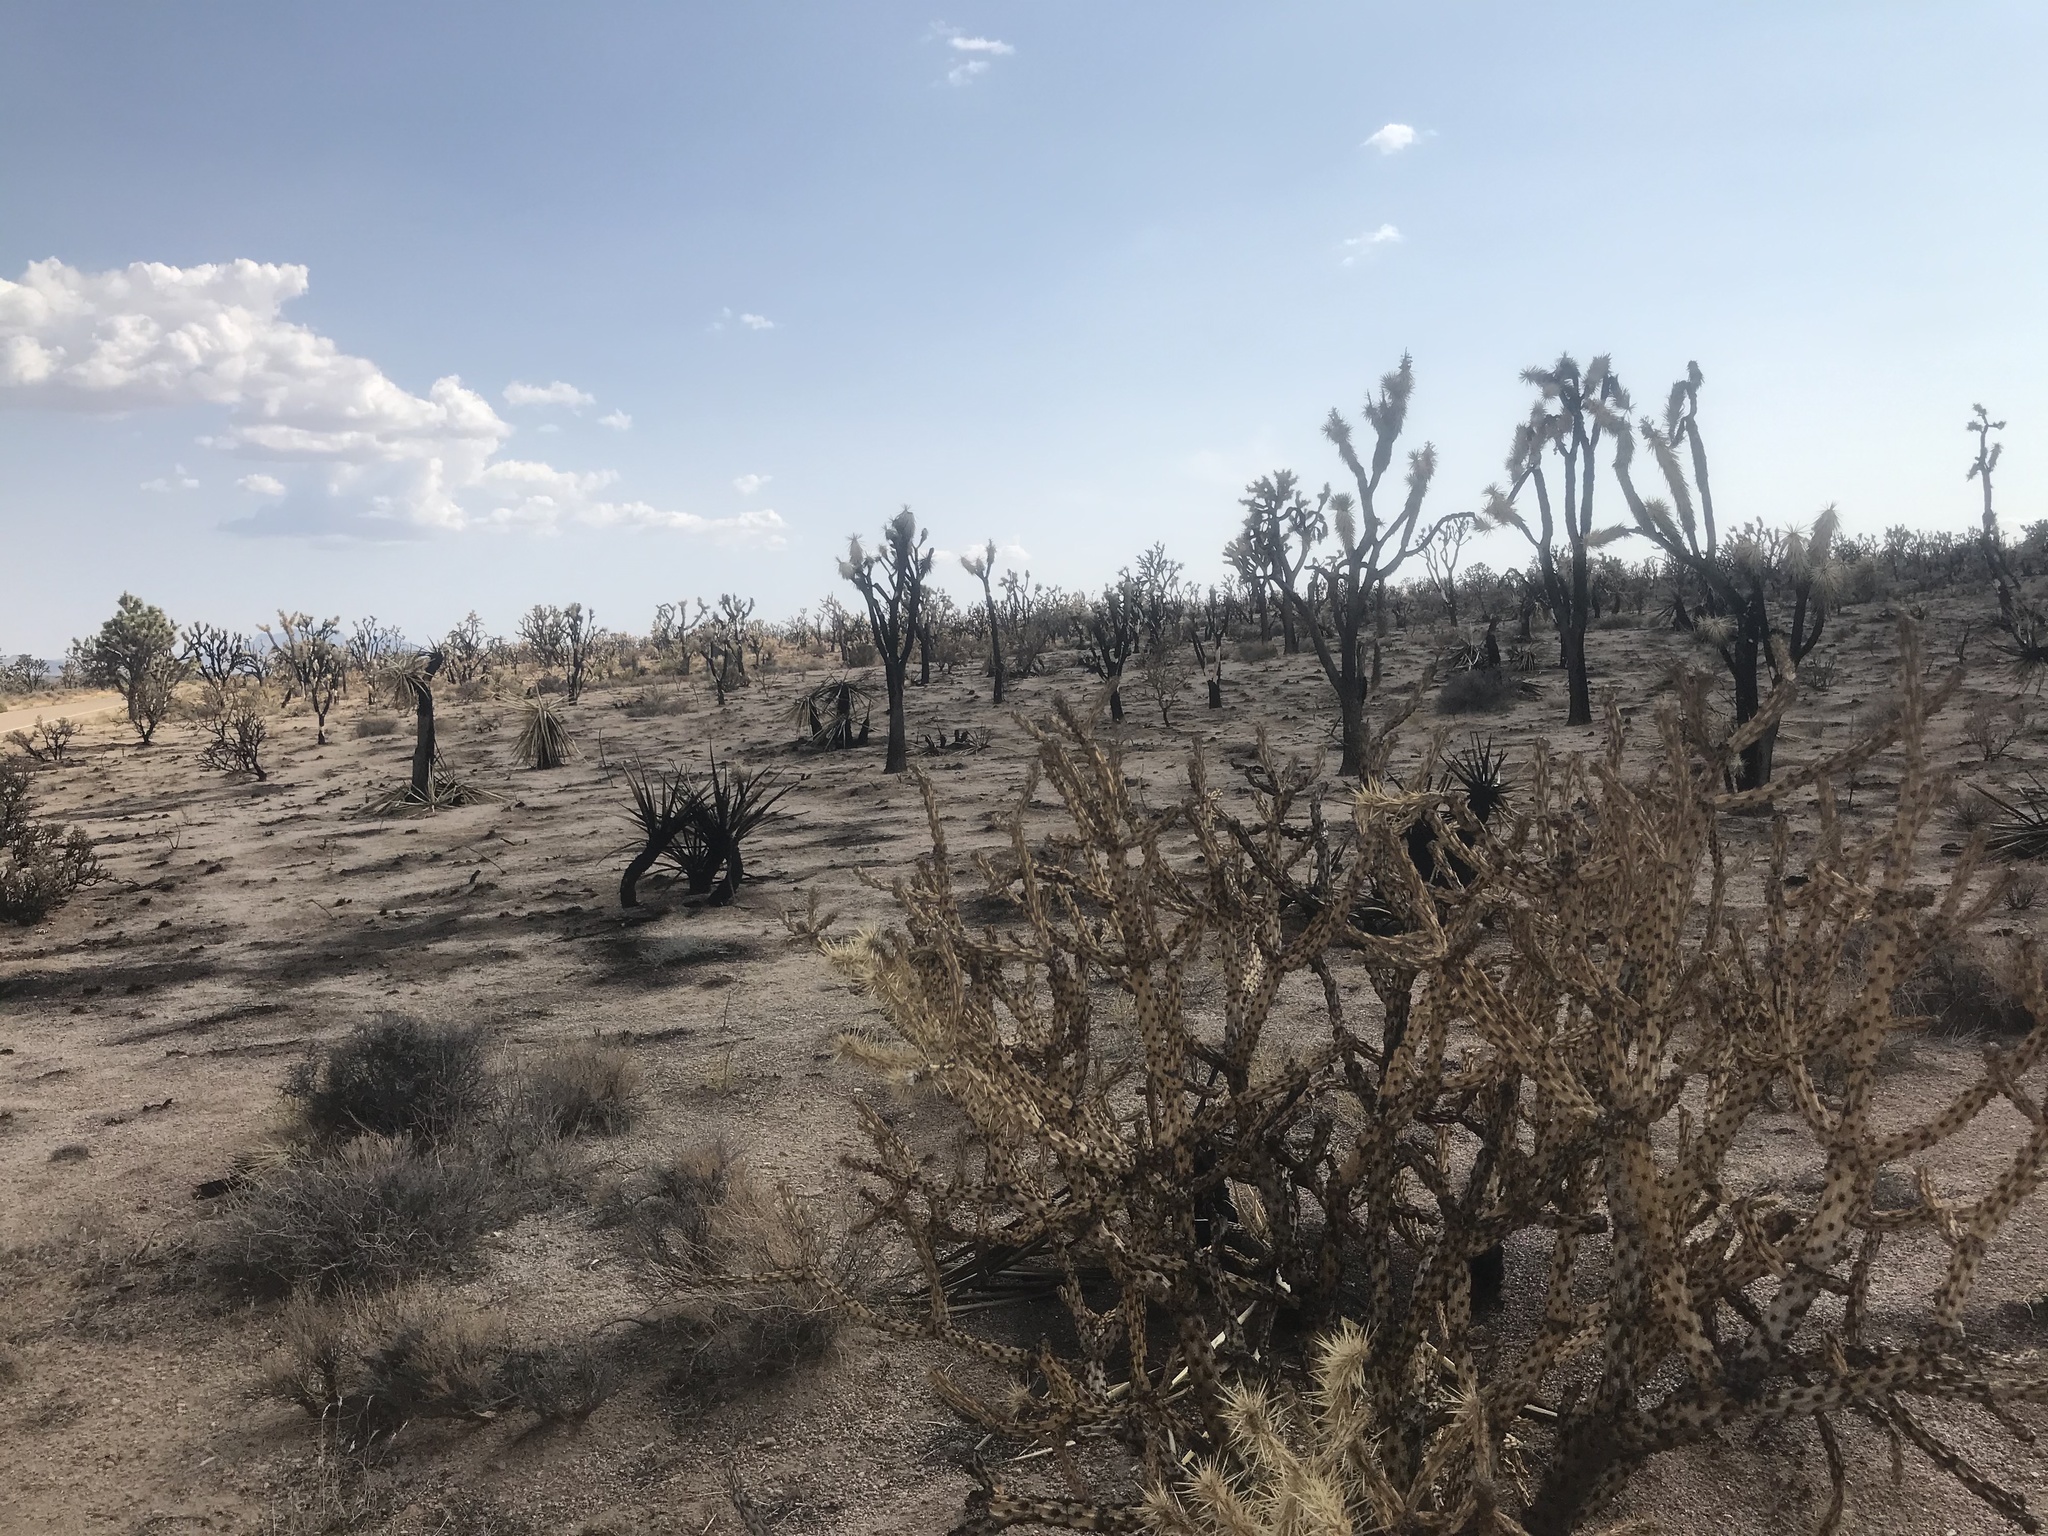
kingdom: Plantae
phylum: Tracheophyta
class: Magnoliopsida
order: Caryophyllales
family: Cactaceae
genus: Cylindropuntia
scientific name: Cylindropuntia ramosissima
